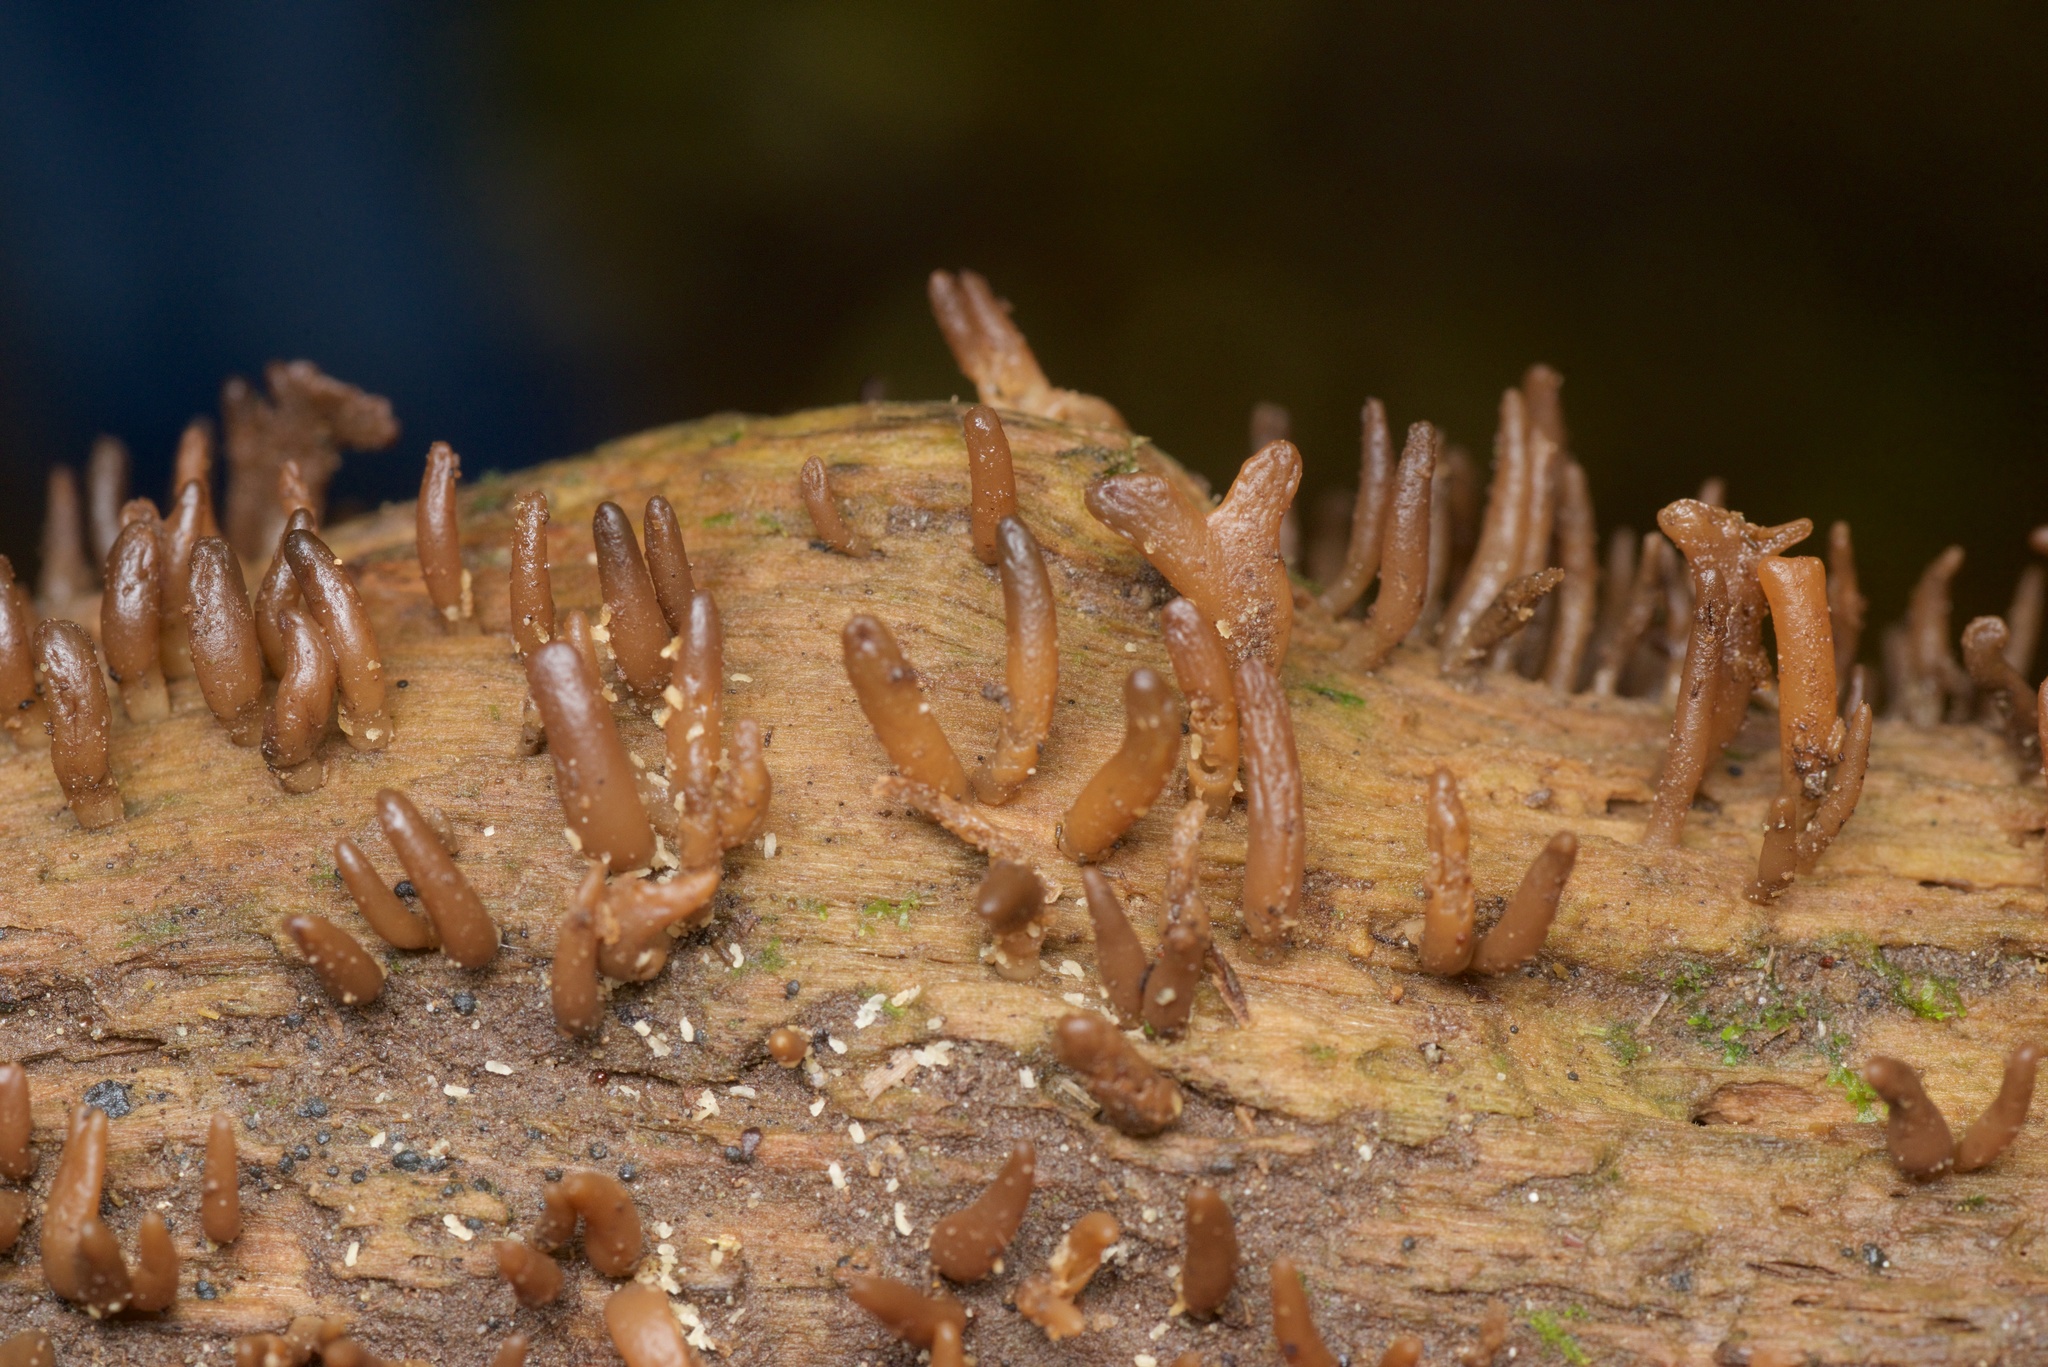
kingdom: Fungi
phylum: Basidiomycota
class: Dacrymycetes
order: Dacrymycetales
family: Dacrymycetaceae
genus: Calocera
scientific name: Calocera fusca
